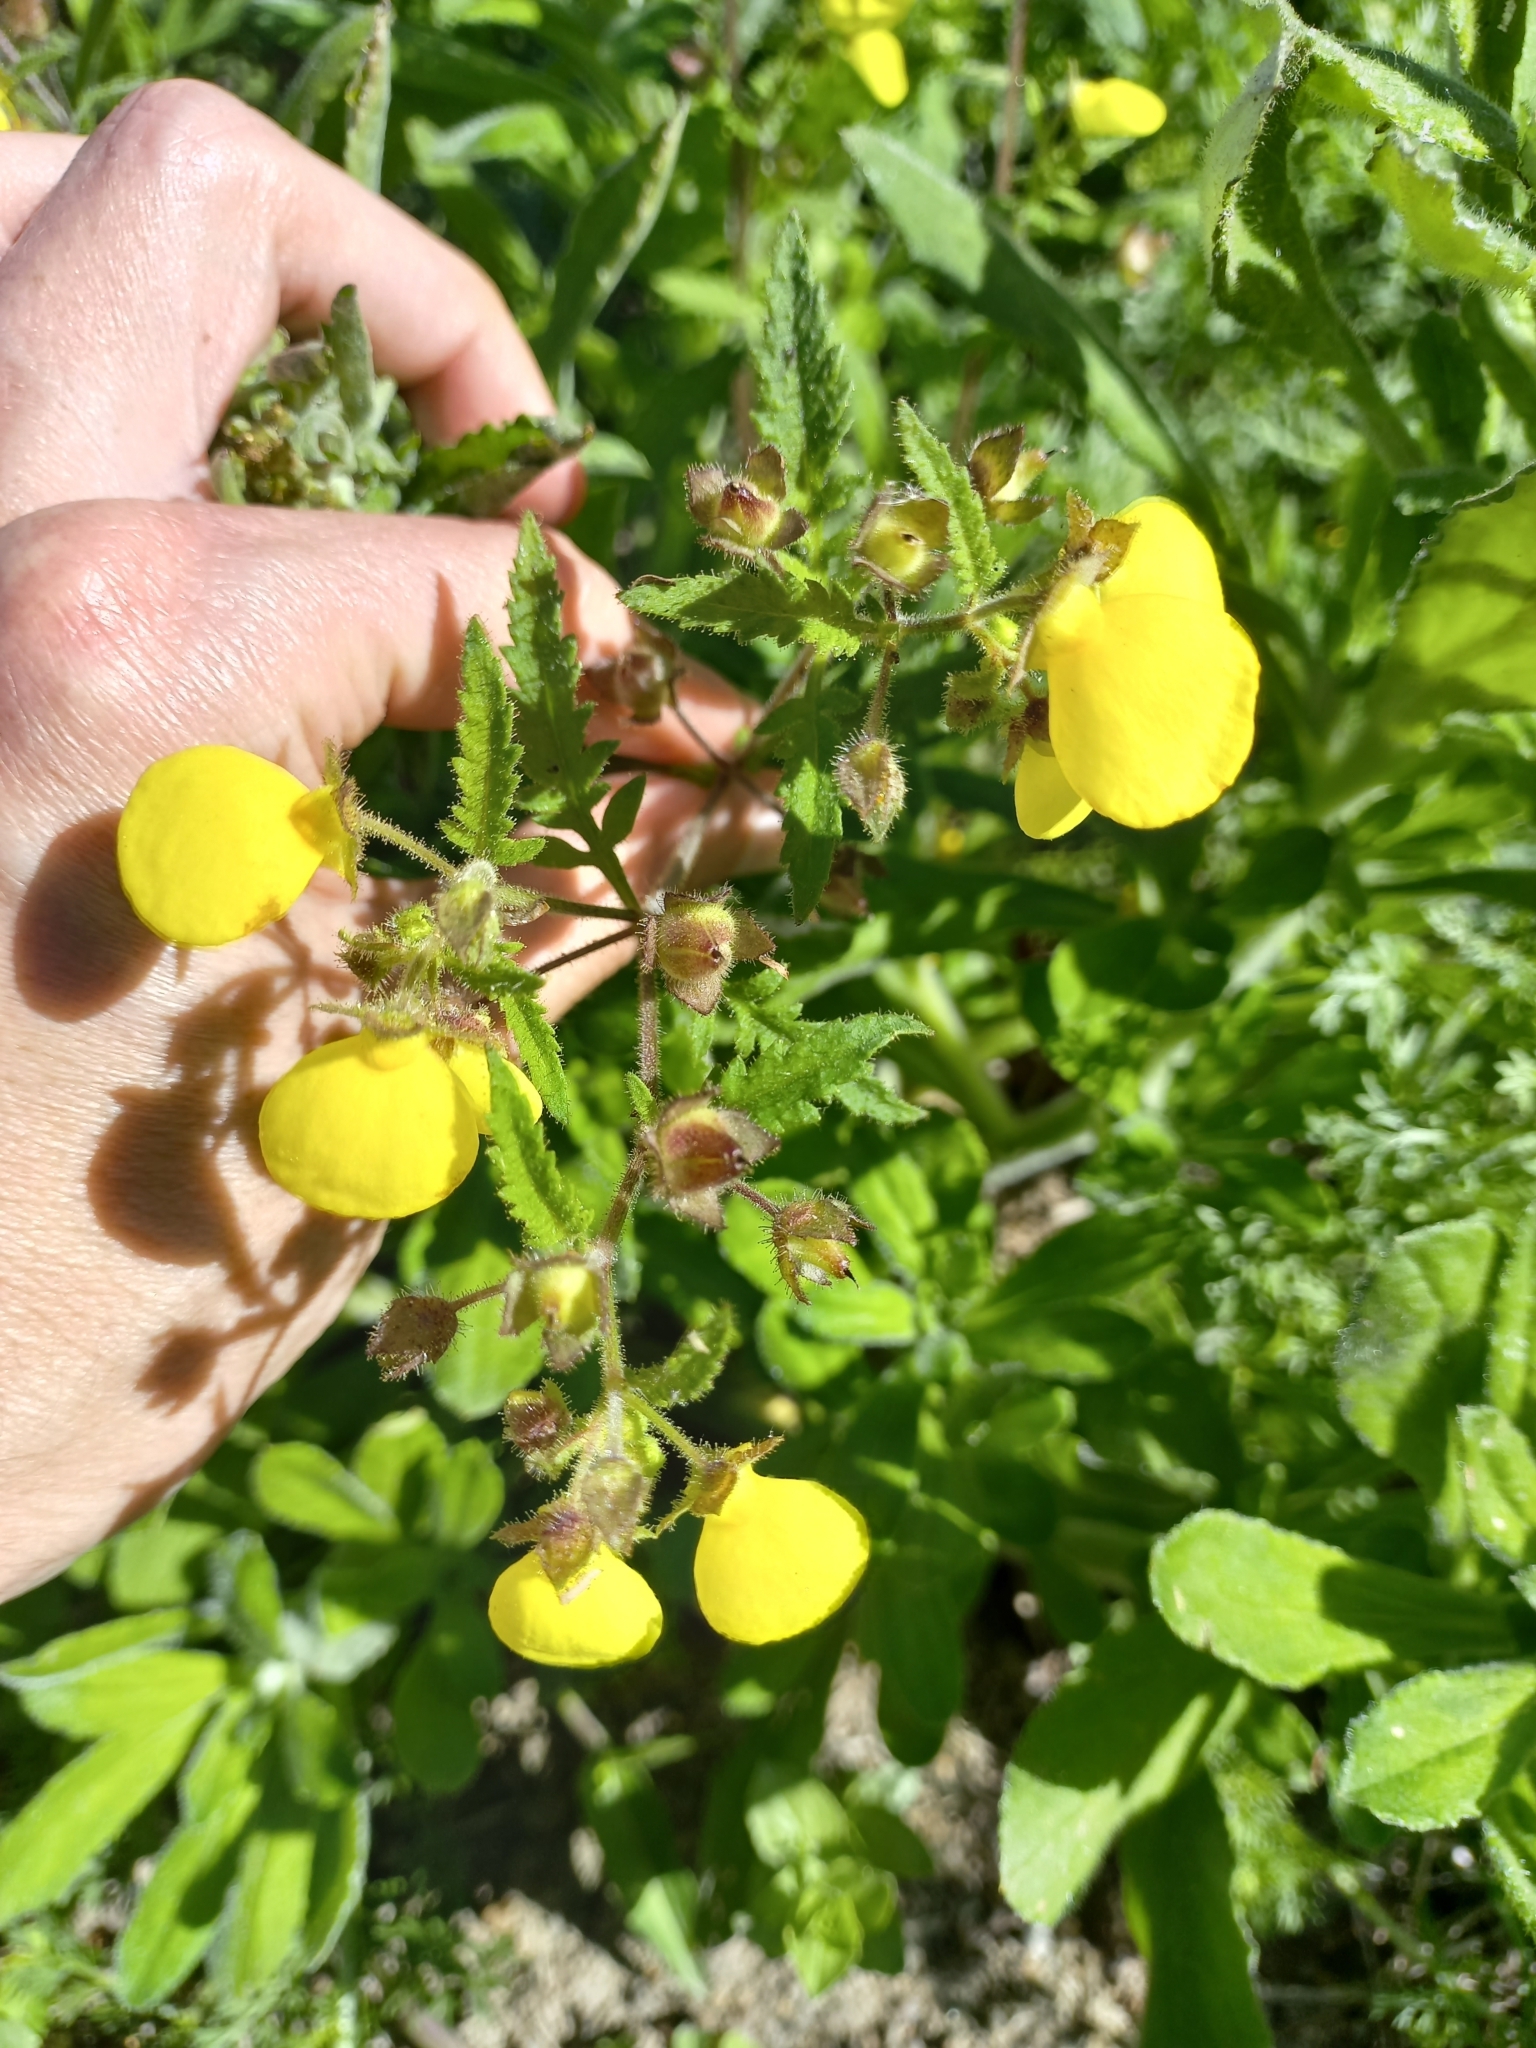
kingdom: Plantae
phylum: Tracheophyta
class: Magnoliopsida
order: Lamiales
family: Calceolariaceae
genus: Calceolaria
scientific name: Calceolaria tripartita
